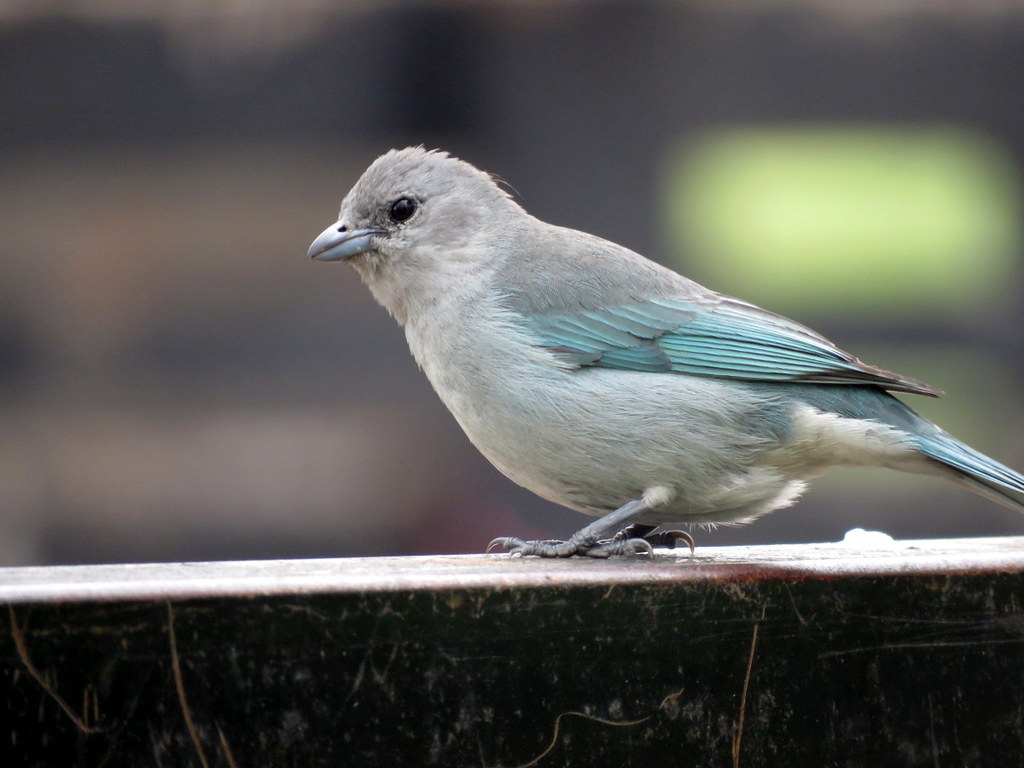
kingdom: Animalia
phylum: Chordata
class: Aves
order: Passeriformes
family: Thraupidae
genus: Thraupis
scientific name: Thraupis sayaca
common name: Sayaca tanager
